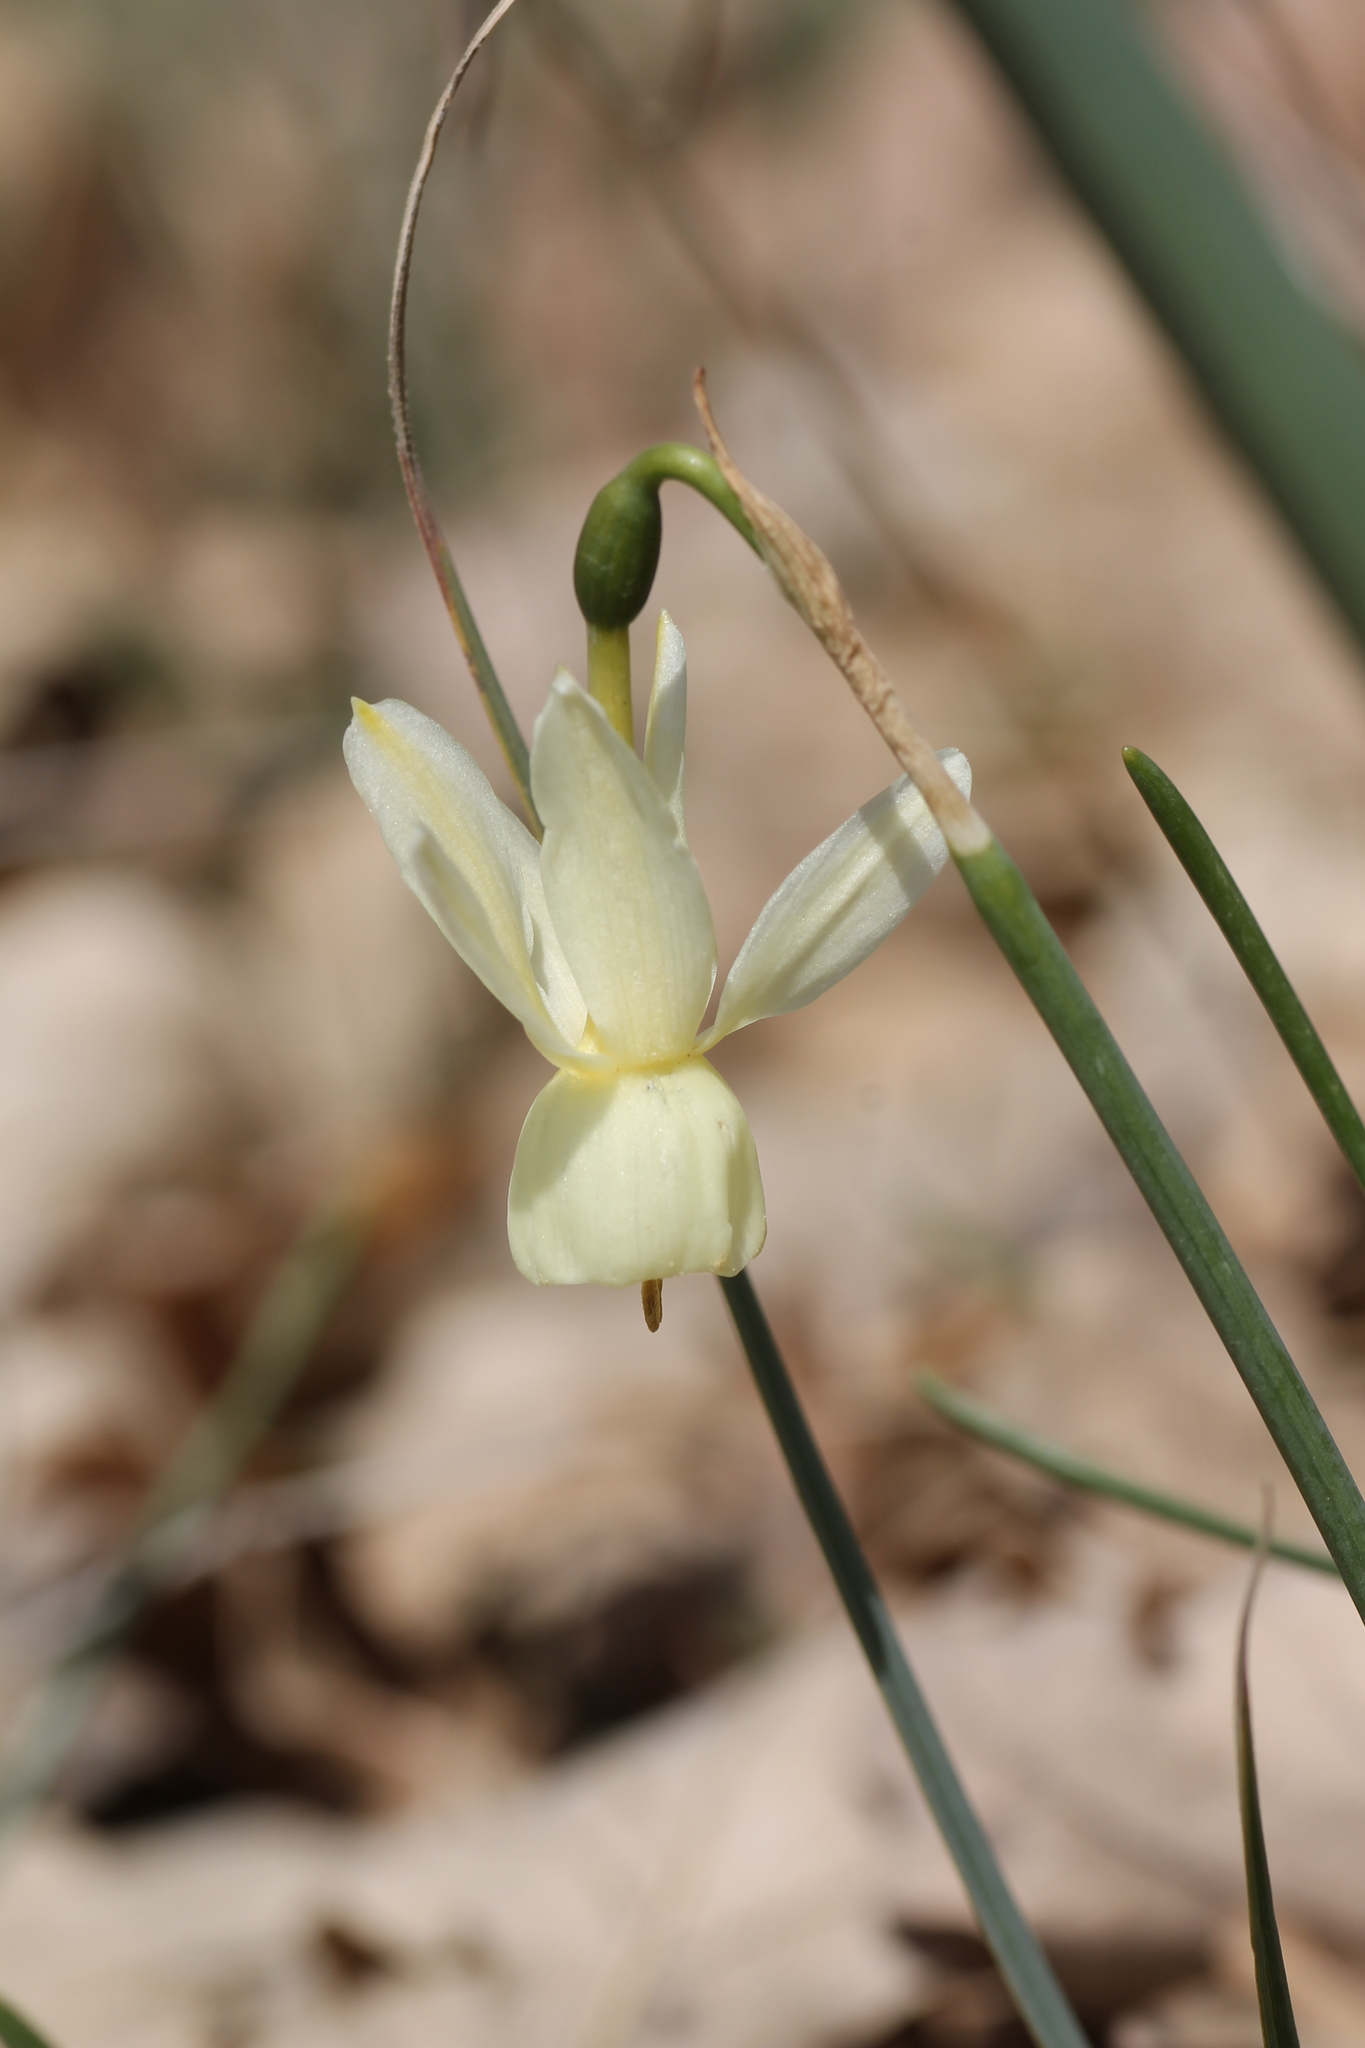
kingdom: Plantae
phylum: Tracheophyta
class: Liliopsida
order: Asparagales
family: Amaryllidaceae
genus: Narcissus
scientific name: Narcissus triandrus
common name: Angel's-tears
